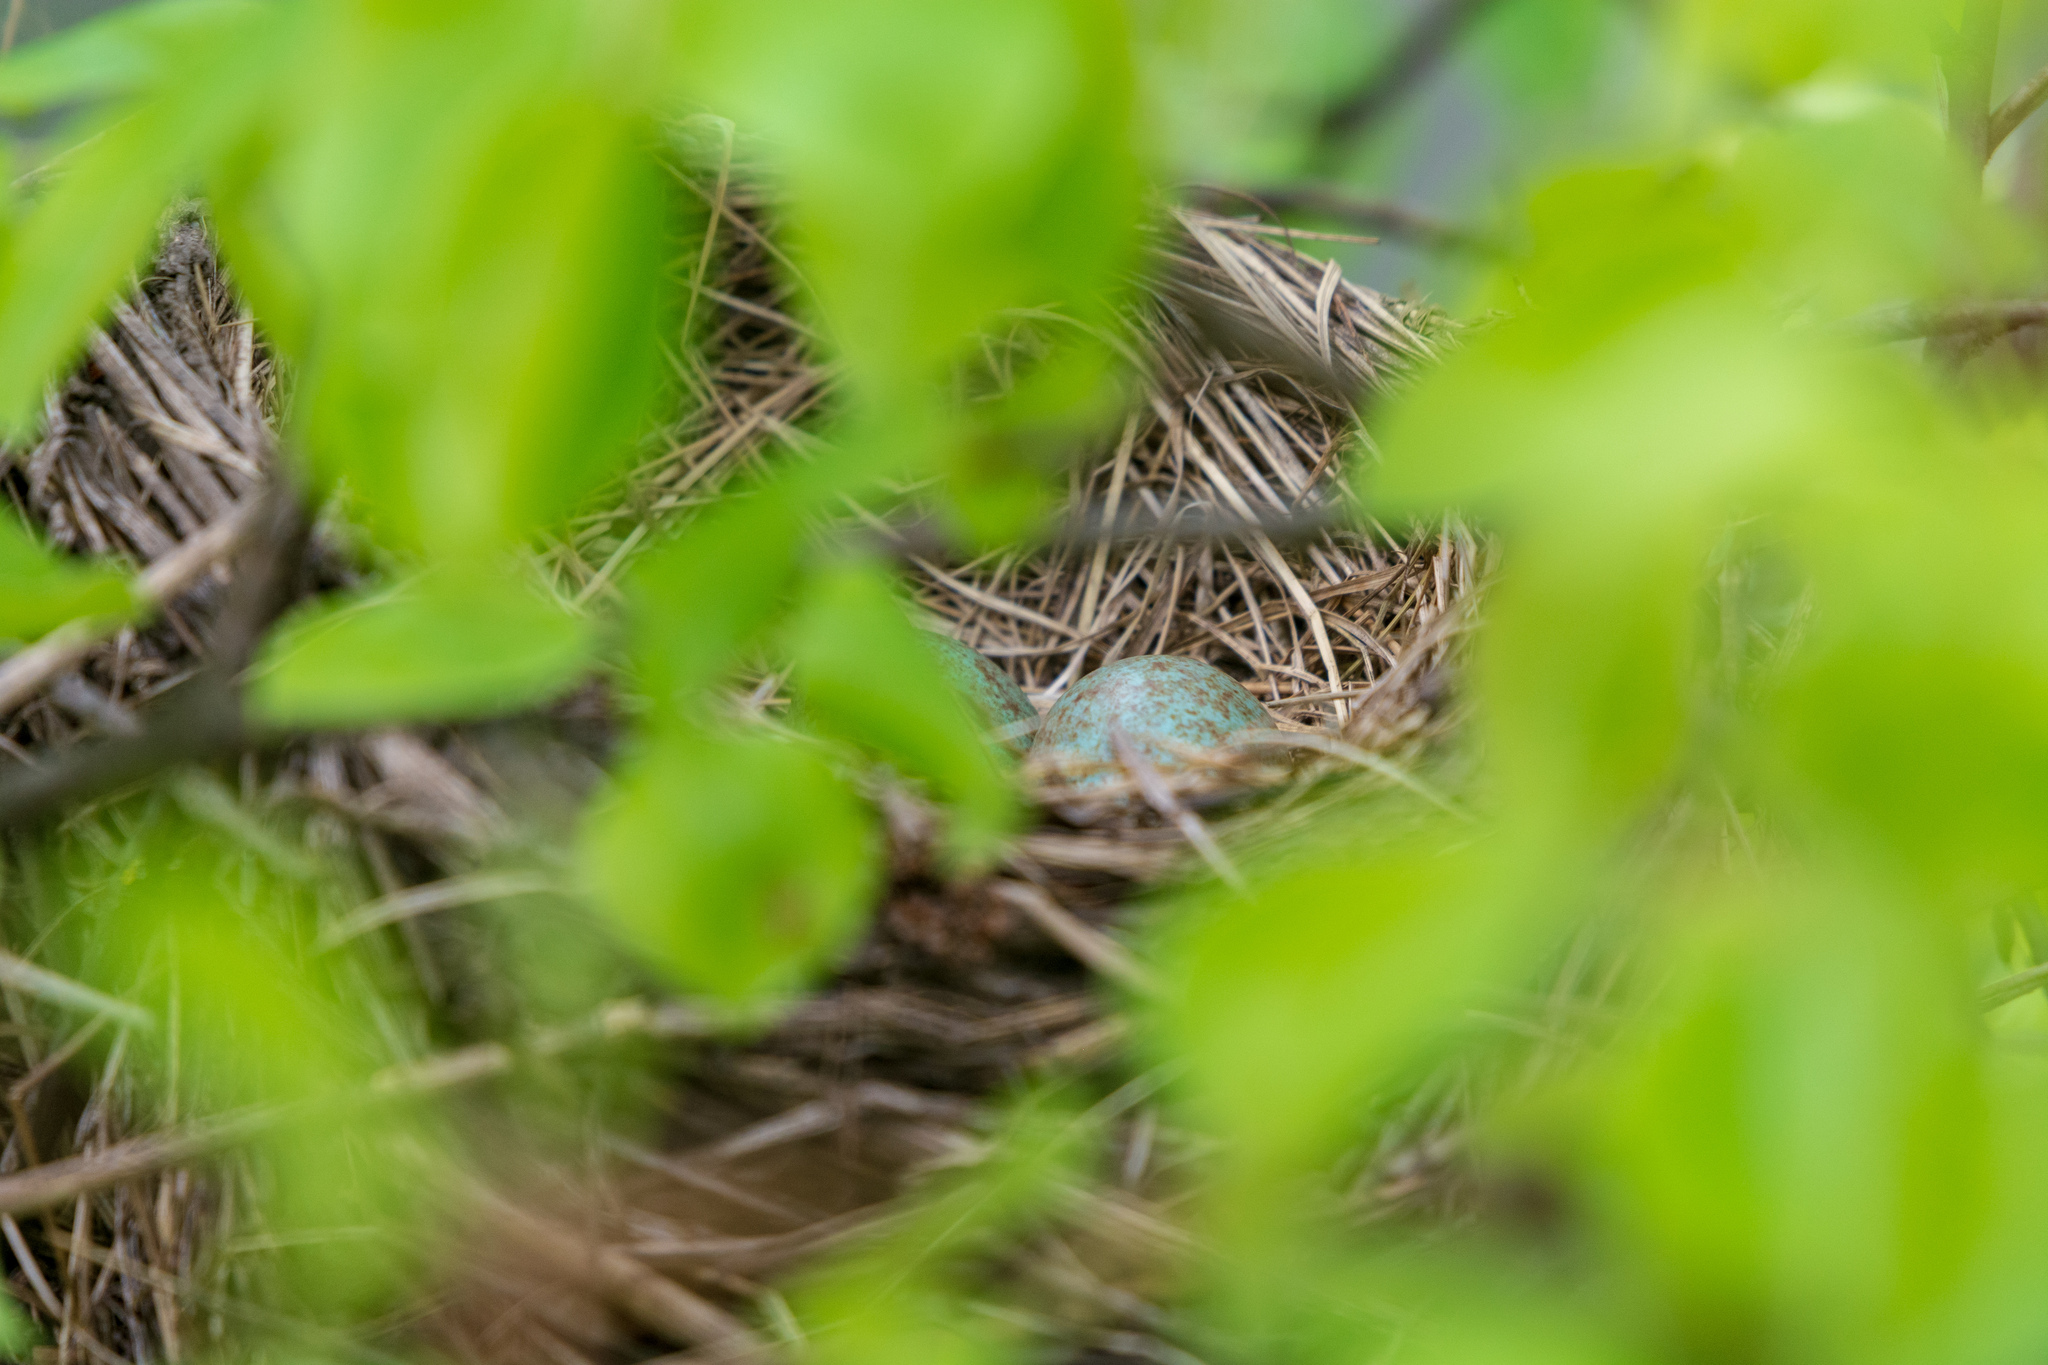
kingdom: Animalia
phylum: Chordata
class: Aves
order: Passeriformes
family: Turdidae
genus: Turdus
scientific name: Turdus pilaris
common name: Fieldfare
